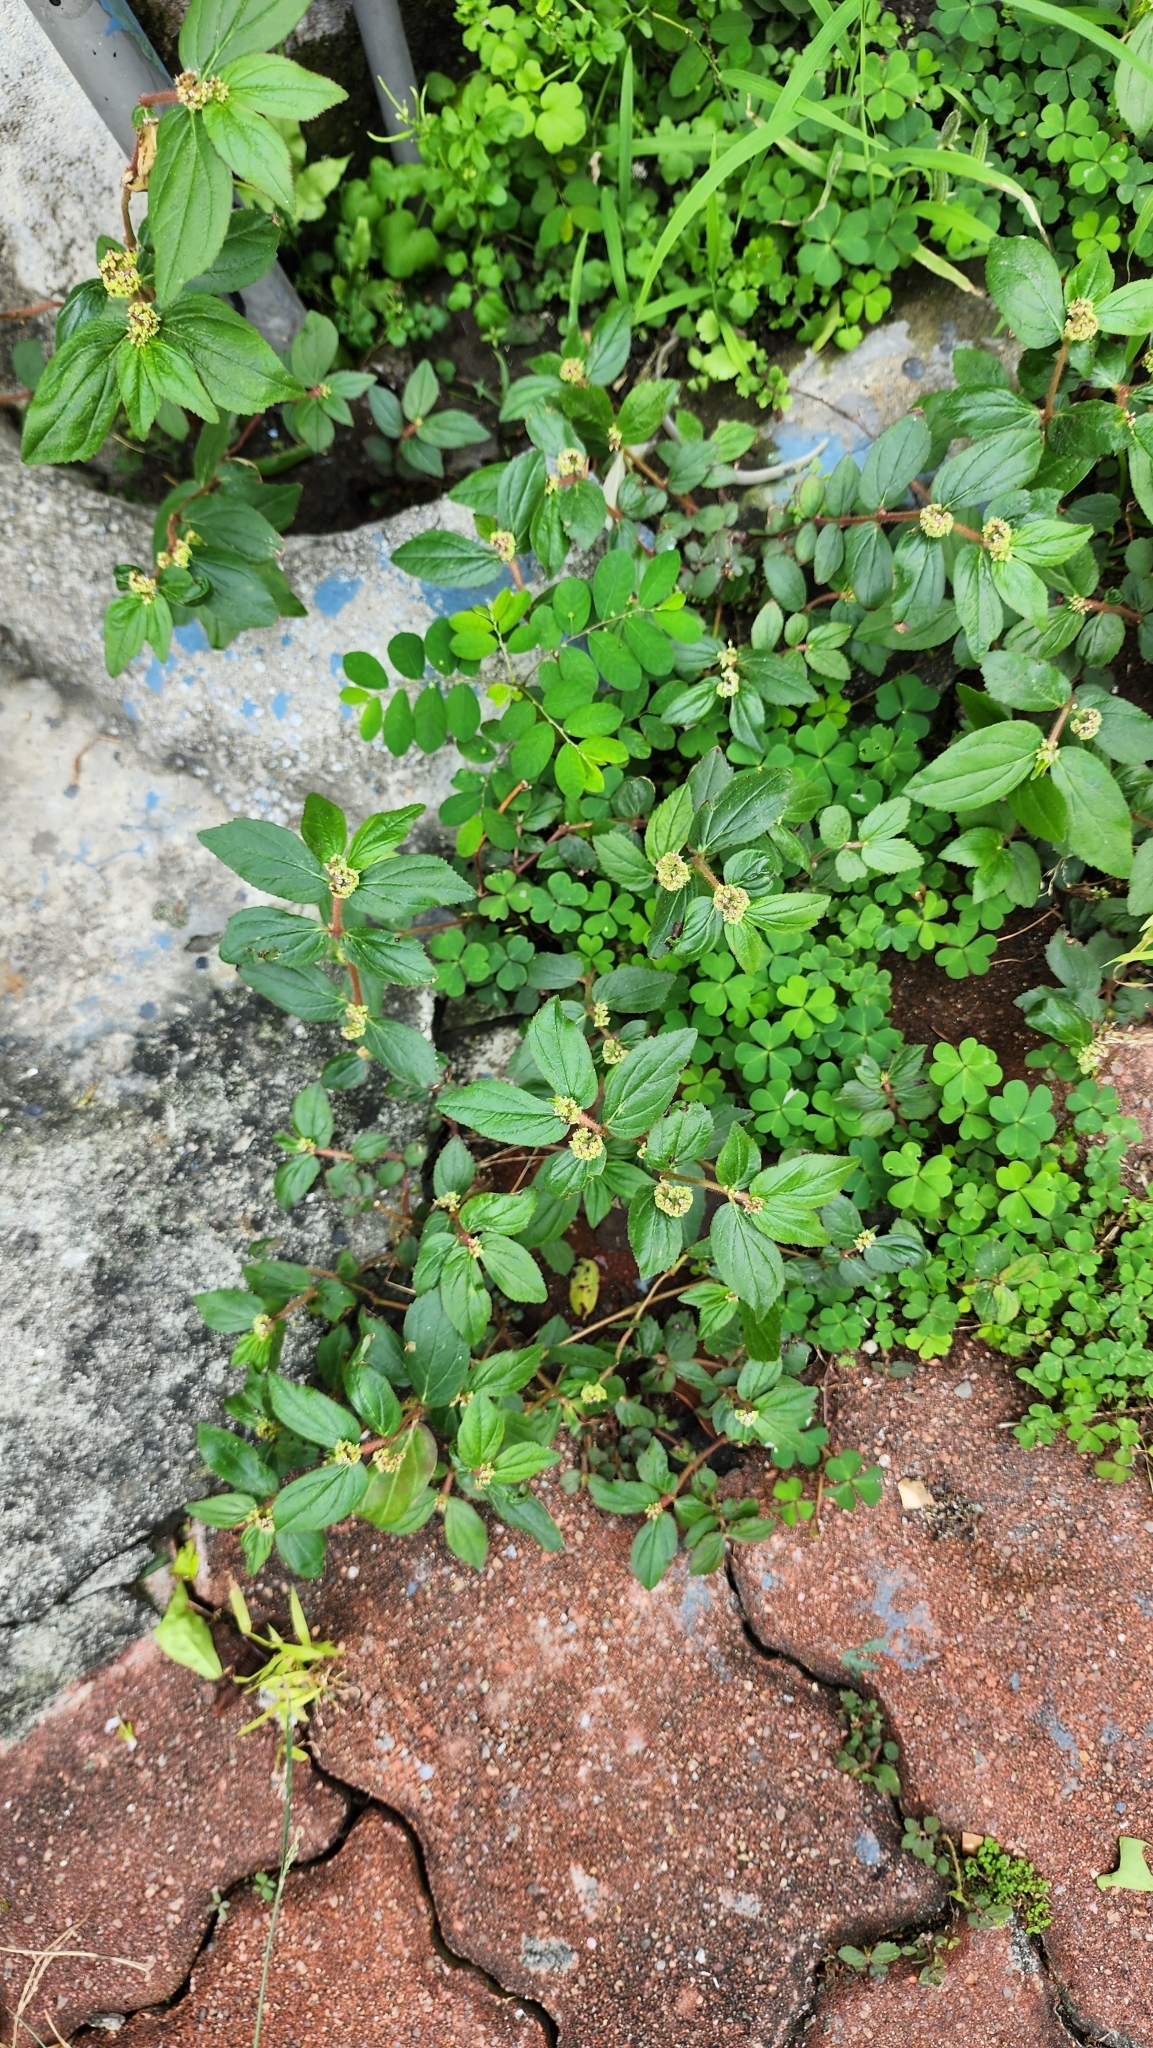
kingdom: Plantae
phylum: Tracheophyta
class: Magnoliopsida
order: Malpighiales
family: Euphorbiaceae
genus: Euphorbia
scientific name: Euphorbia hirta
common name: Pillpod sandmat
